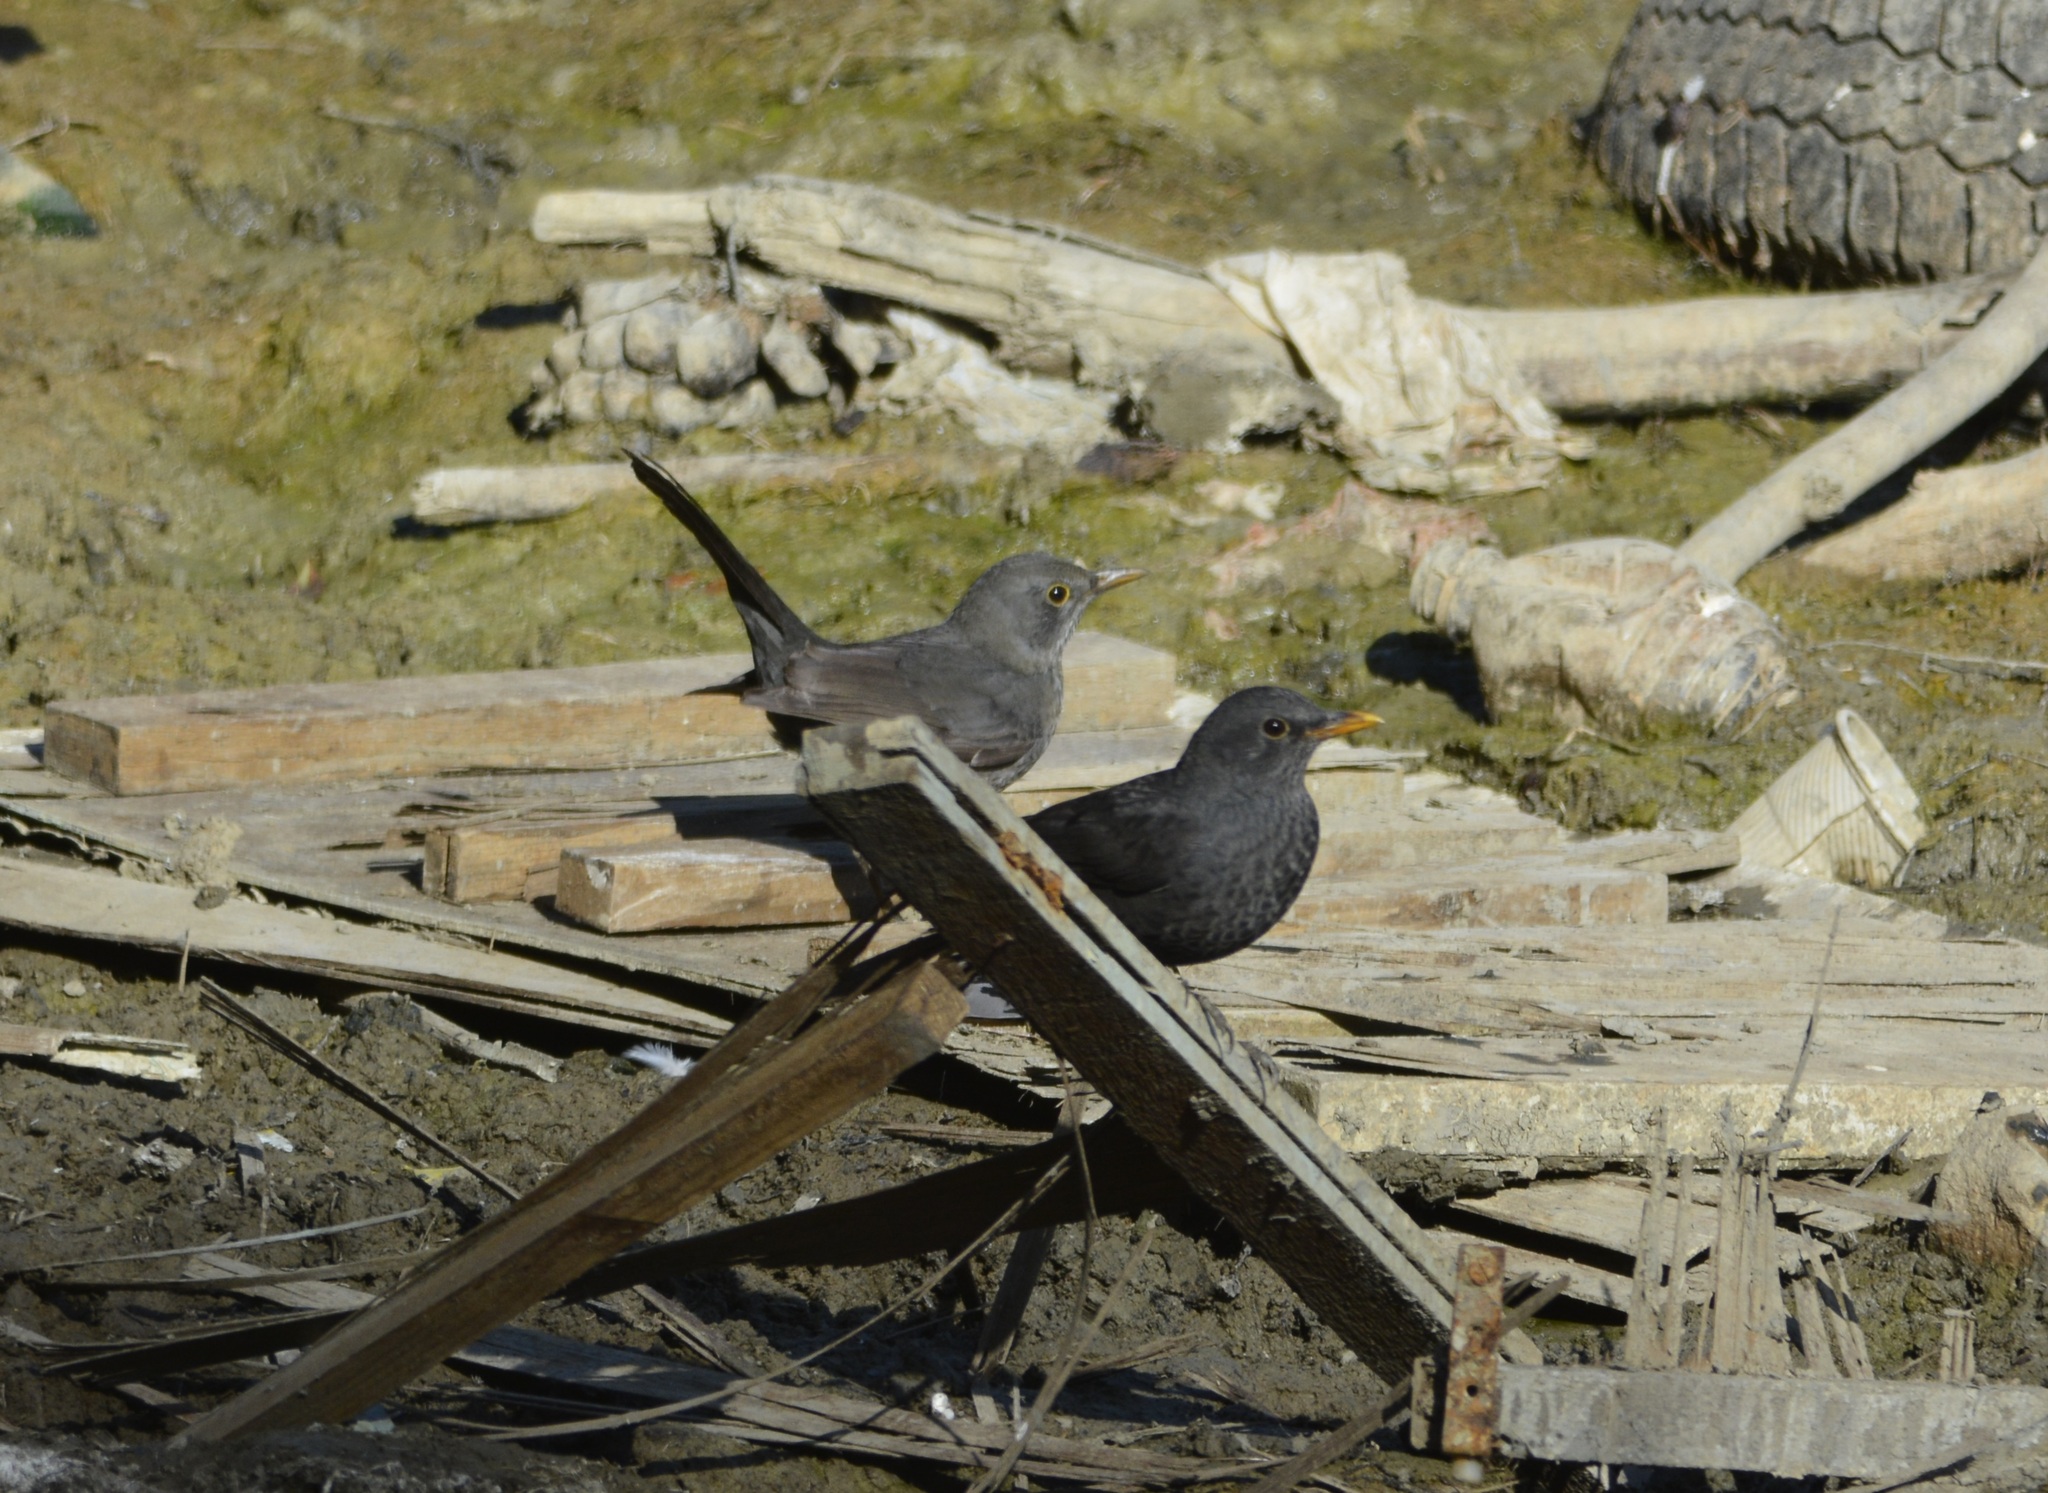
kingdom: Animalia
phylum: Chordata
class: Aves
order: Passeriformes
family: Turdidae
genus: Turdus
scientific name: Turdus merula
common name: Common blackbird
